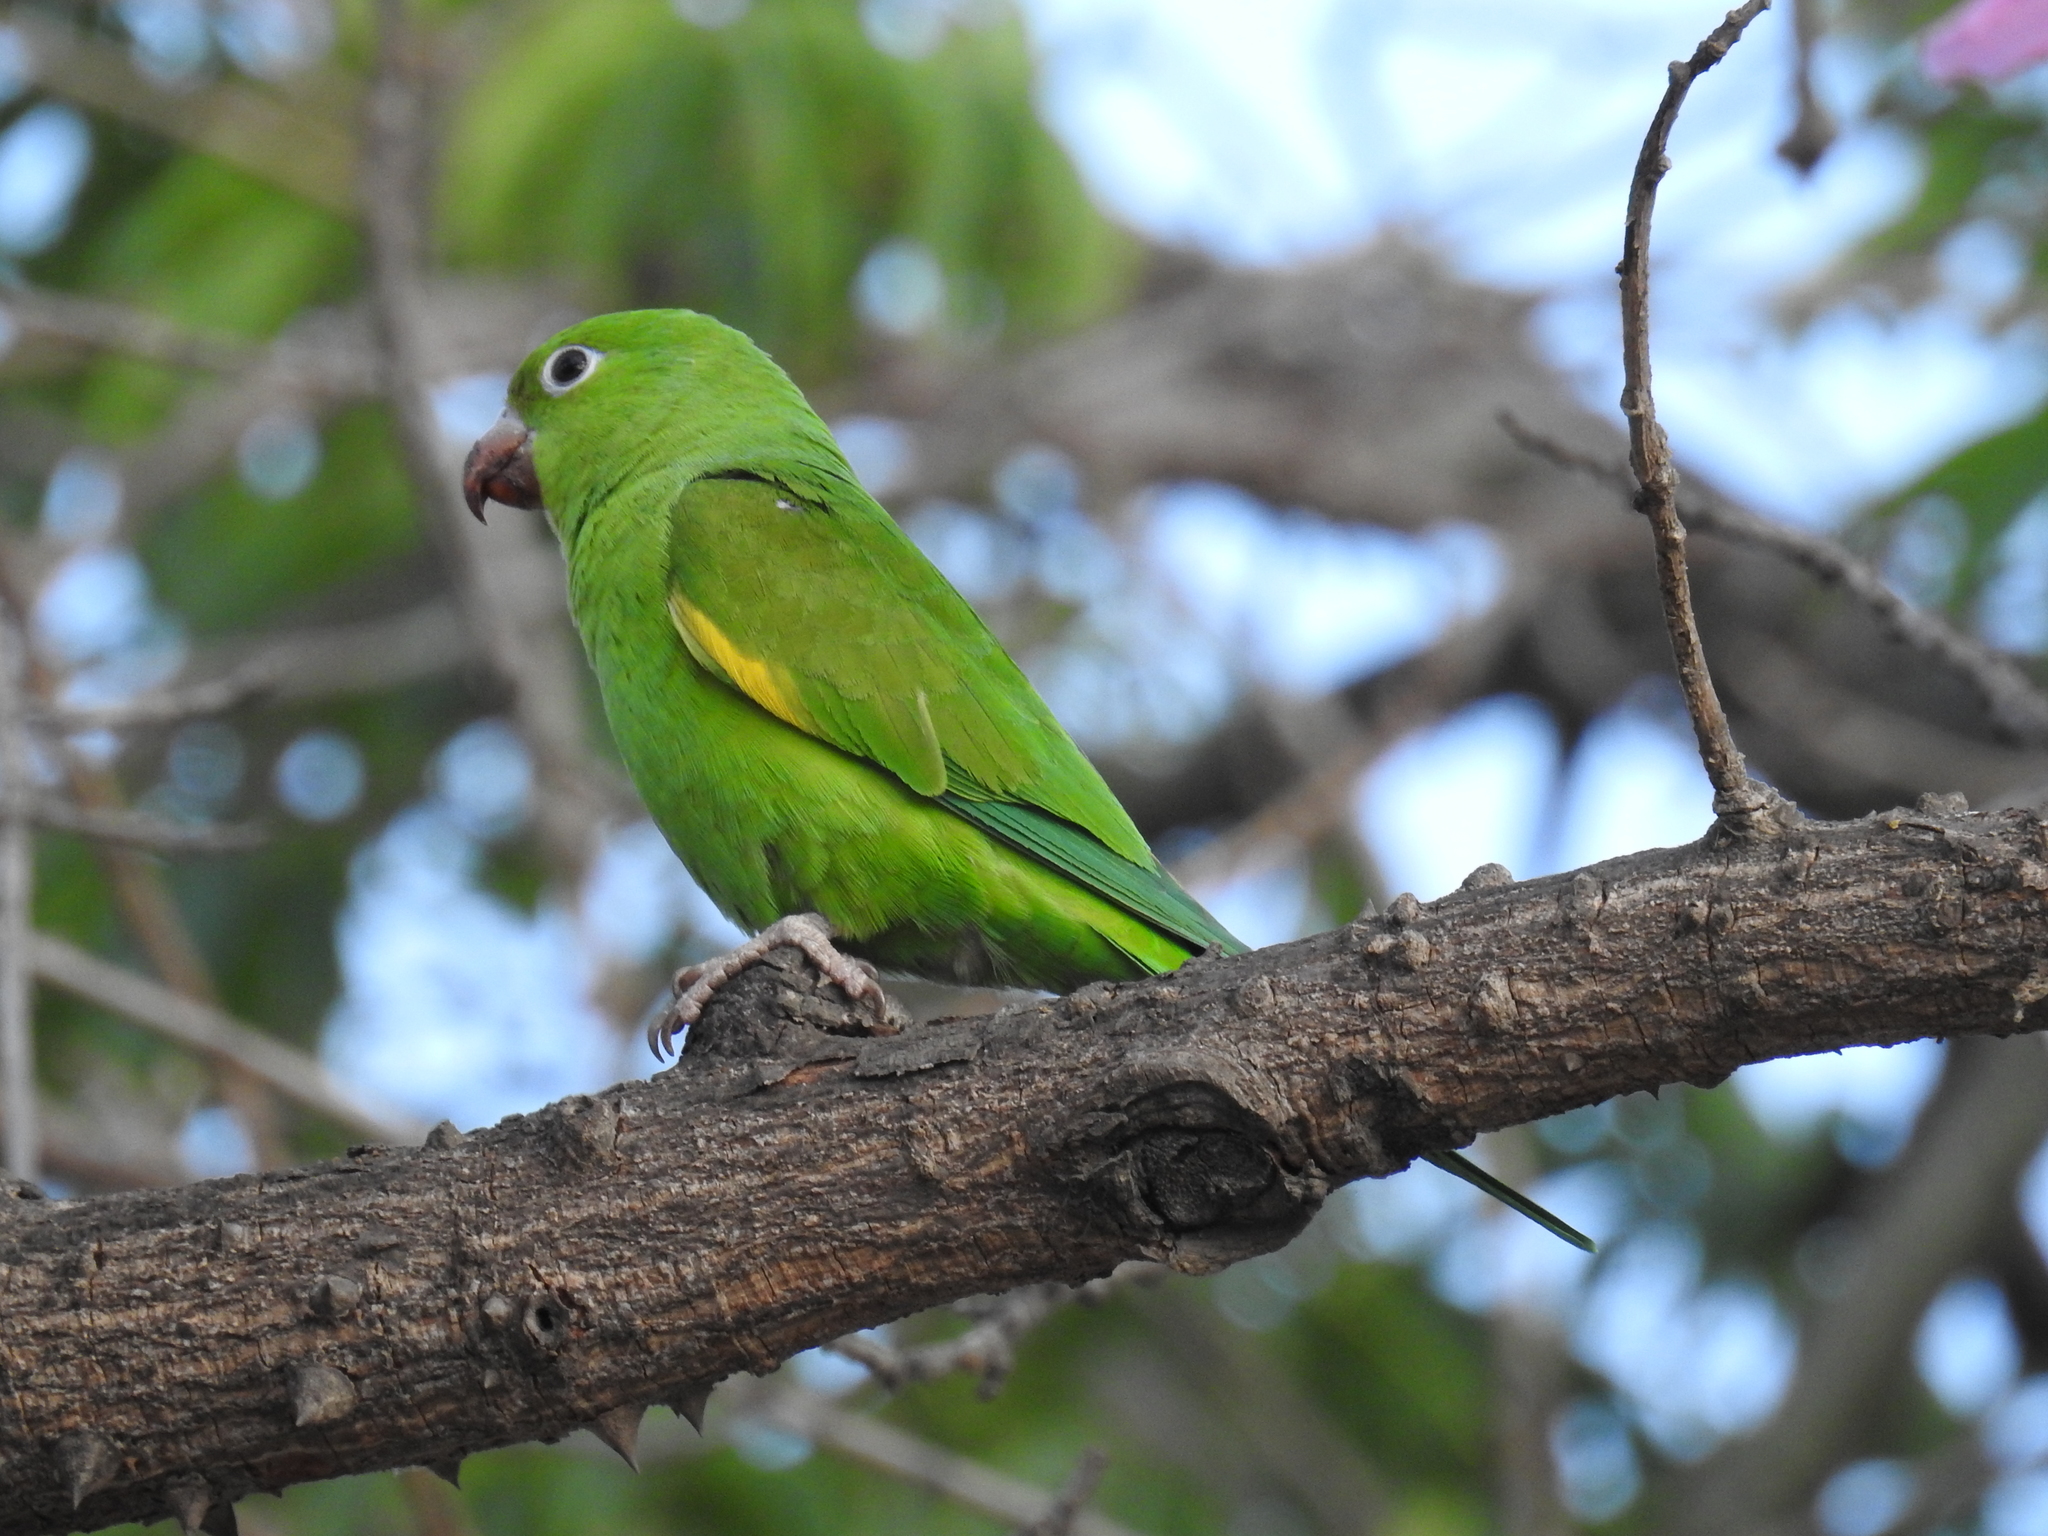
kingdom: Animalia
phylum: Chordata
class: Aves
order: Psittaciformes
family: Psittacidae
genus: Brotogeris
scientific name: Brotogeris chiriri
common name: Yellow-chevroned parakeet
